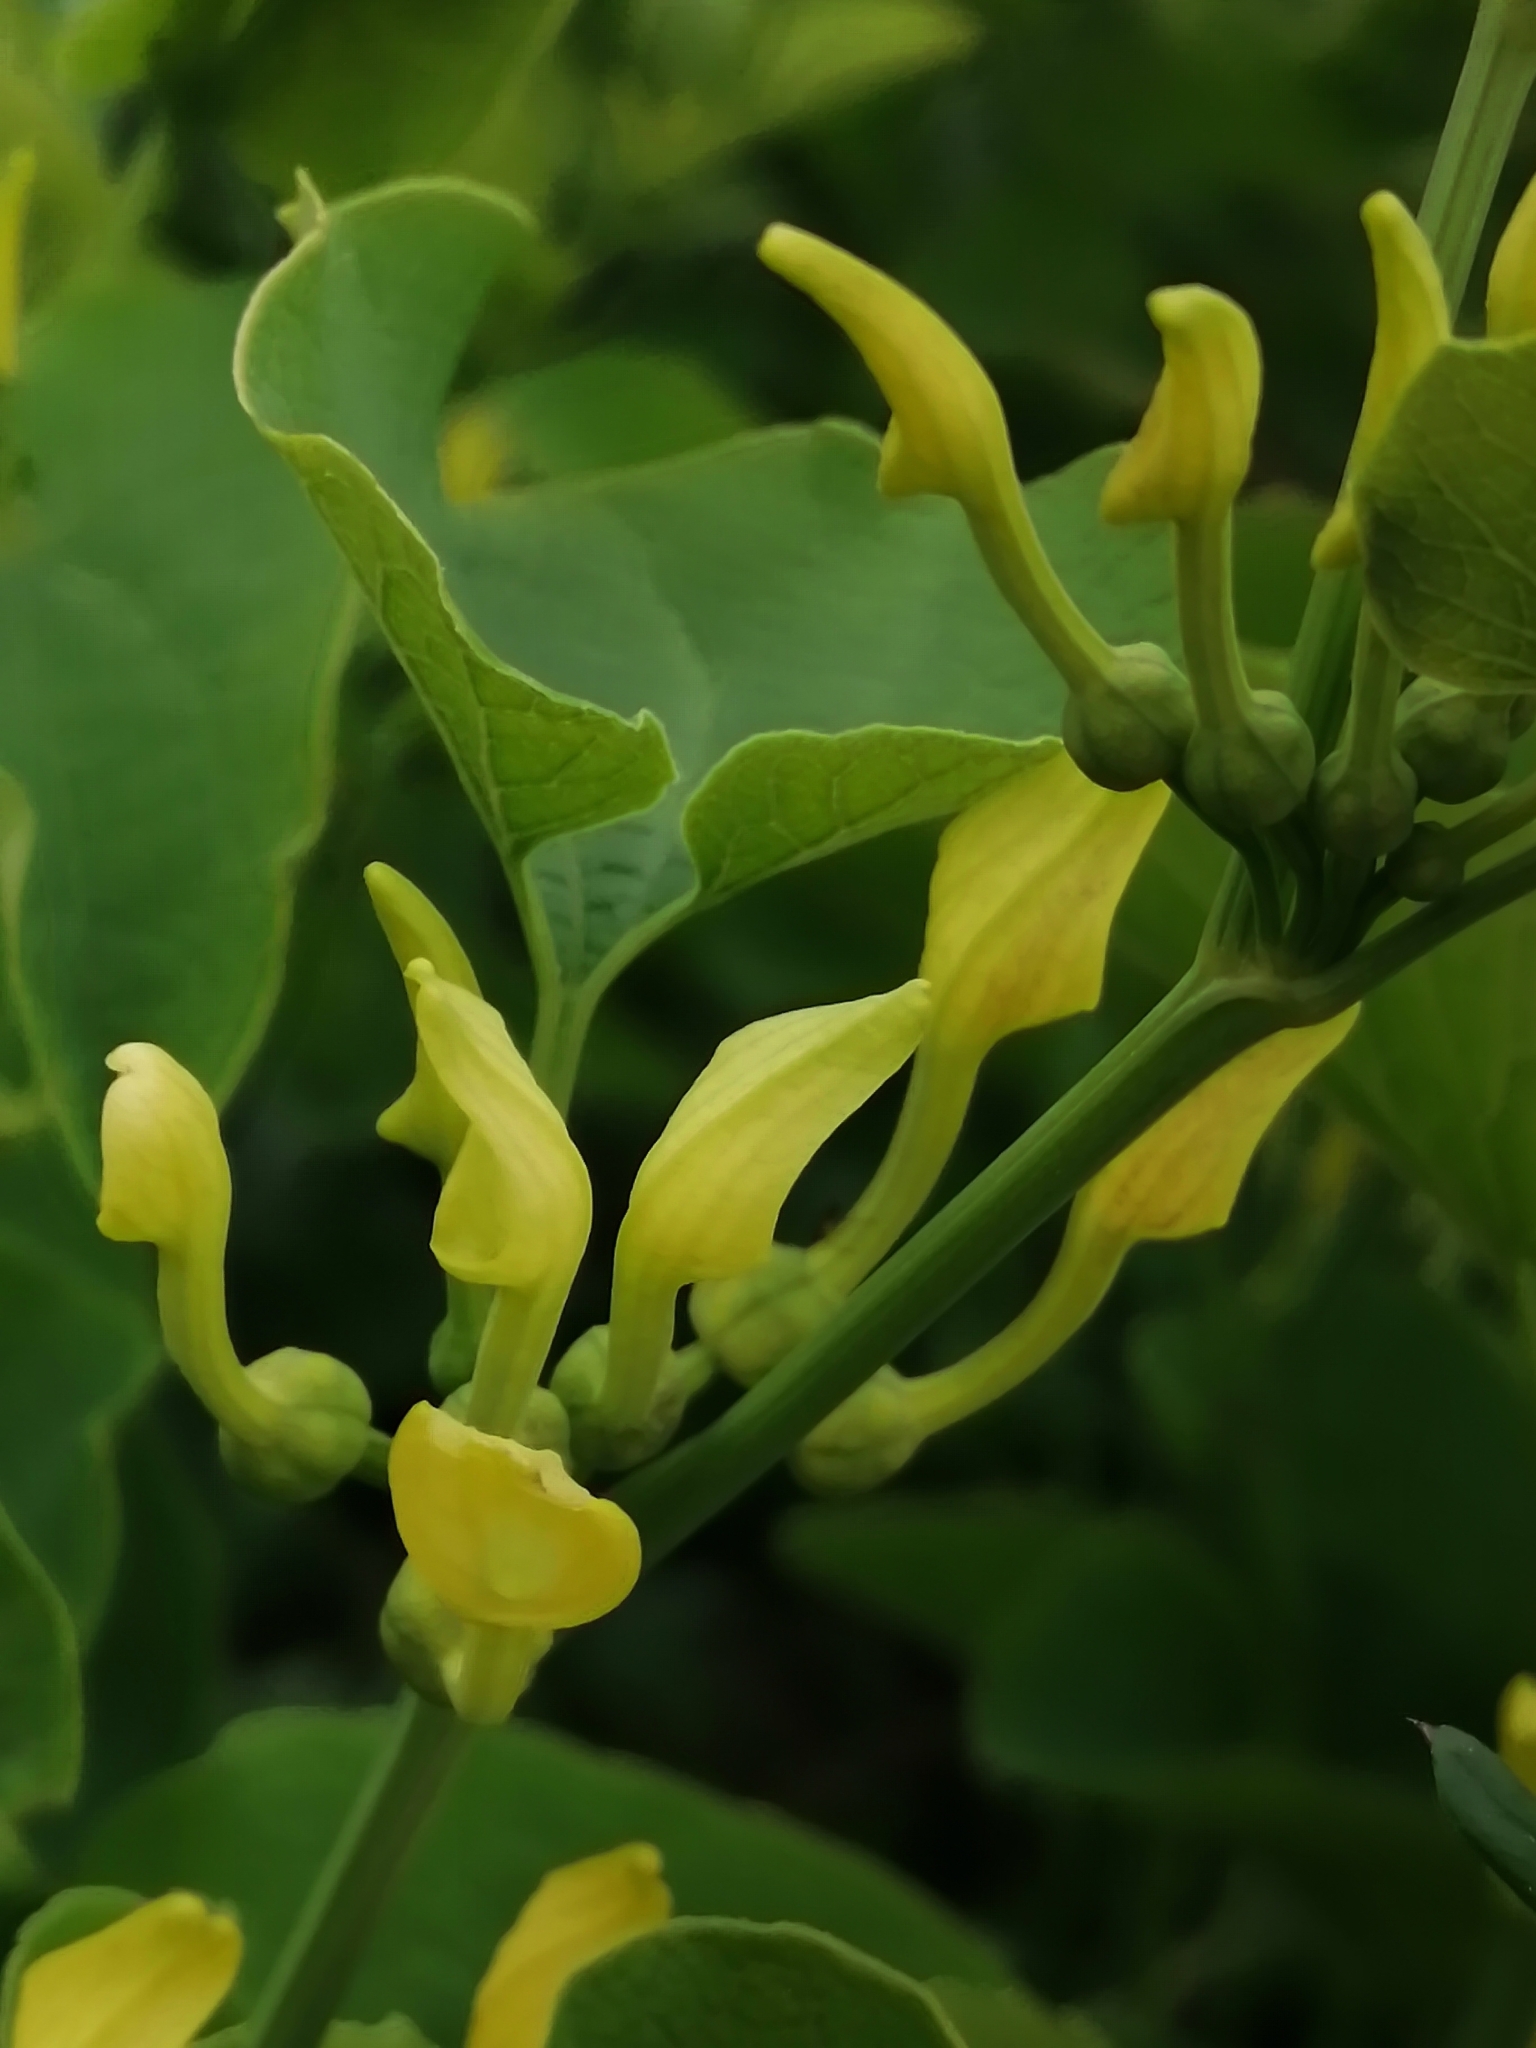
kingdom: Plantae
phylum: Tracheophyta
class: Magnoliopsida
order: Piperales
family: Aristolochiaceae
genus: Aristolochia
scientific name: Aristolochia clematitis
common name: Birthwort
